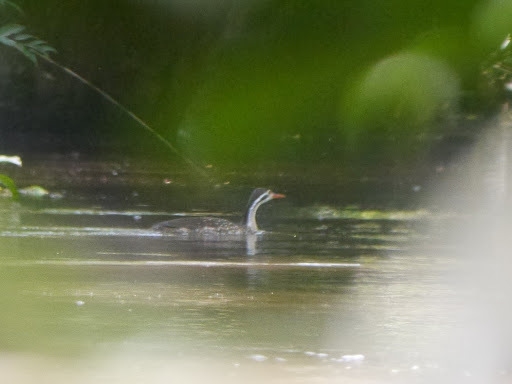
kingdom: Animalia
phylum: Chordata
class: Aves
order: Gruiformes
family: Heliornithidae
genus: Podica
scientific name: Podica senegalensis
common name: African finfoot
